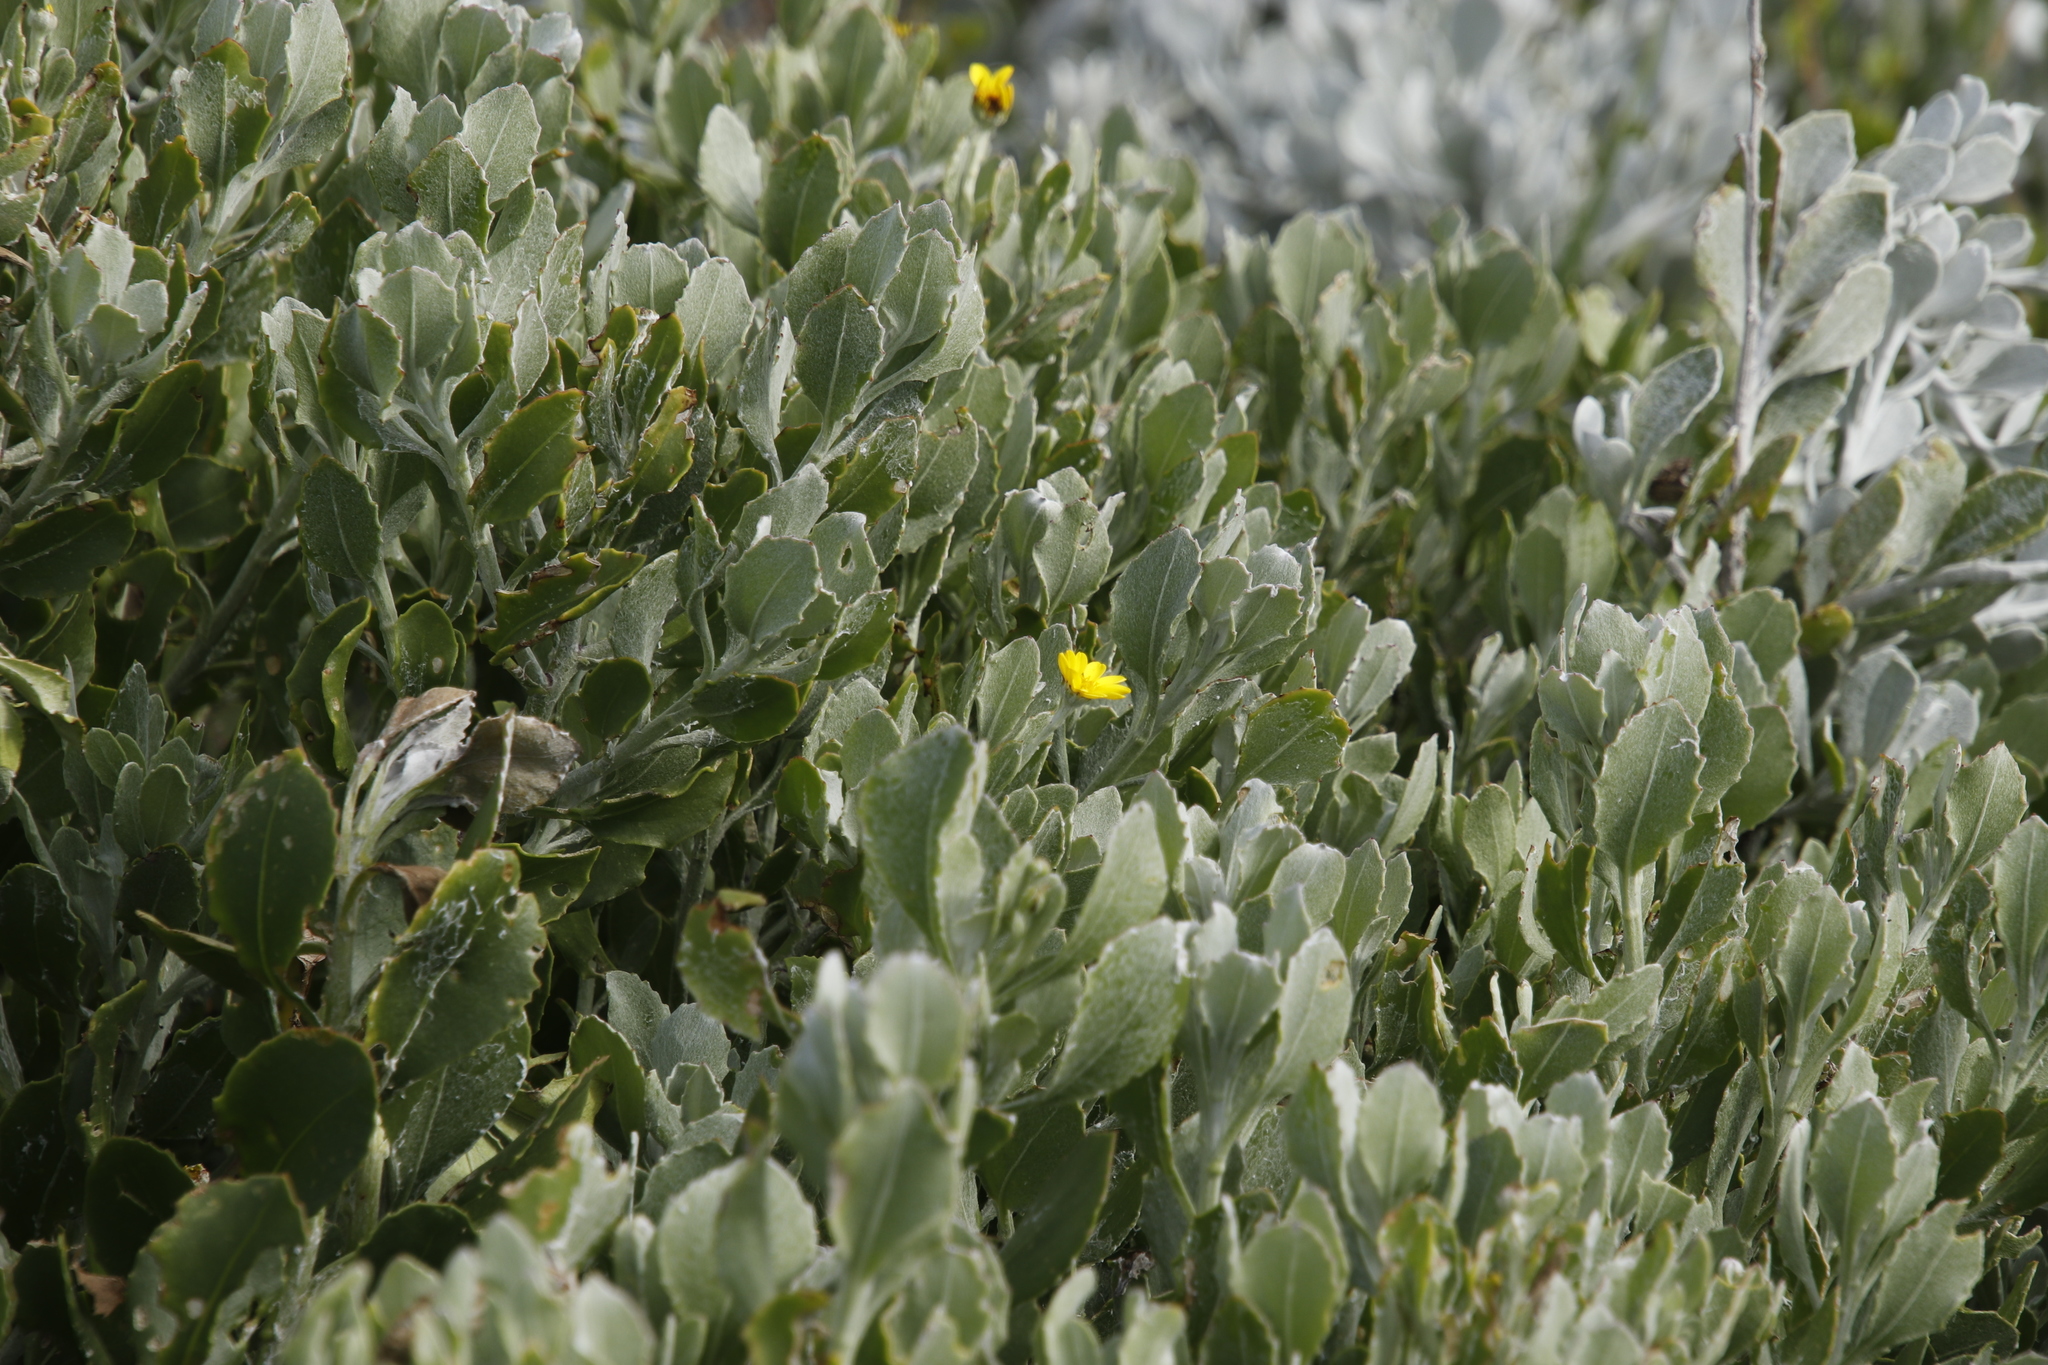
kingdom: Plantae
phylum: Tracheophyta
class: Magnoliopsida
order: Asterales
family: Asteraceae
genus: Osteospermum
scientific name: Osteospermum moniliferum
